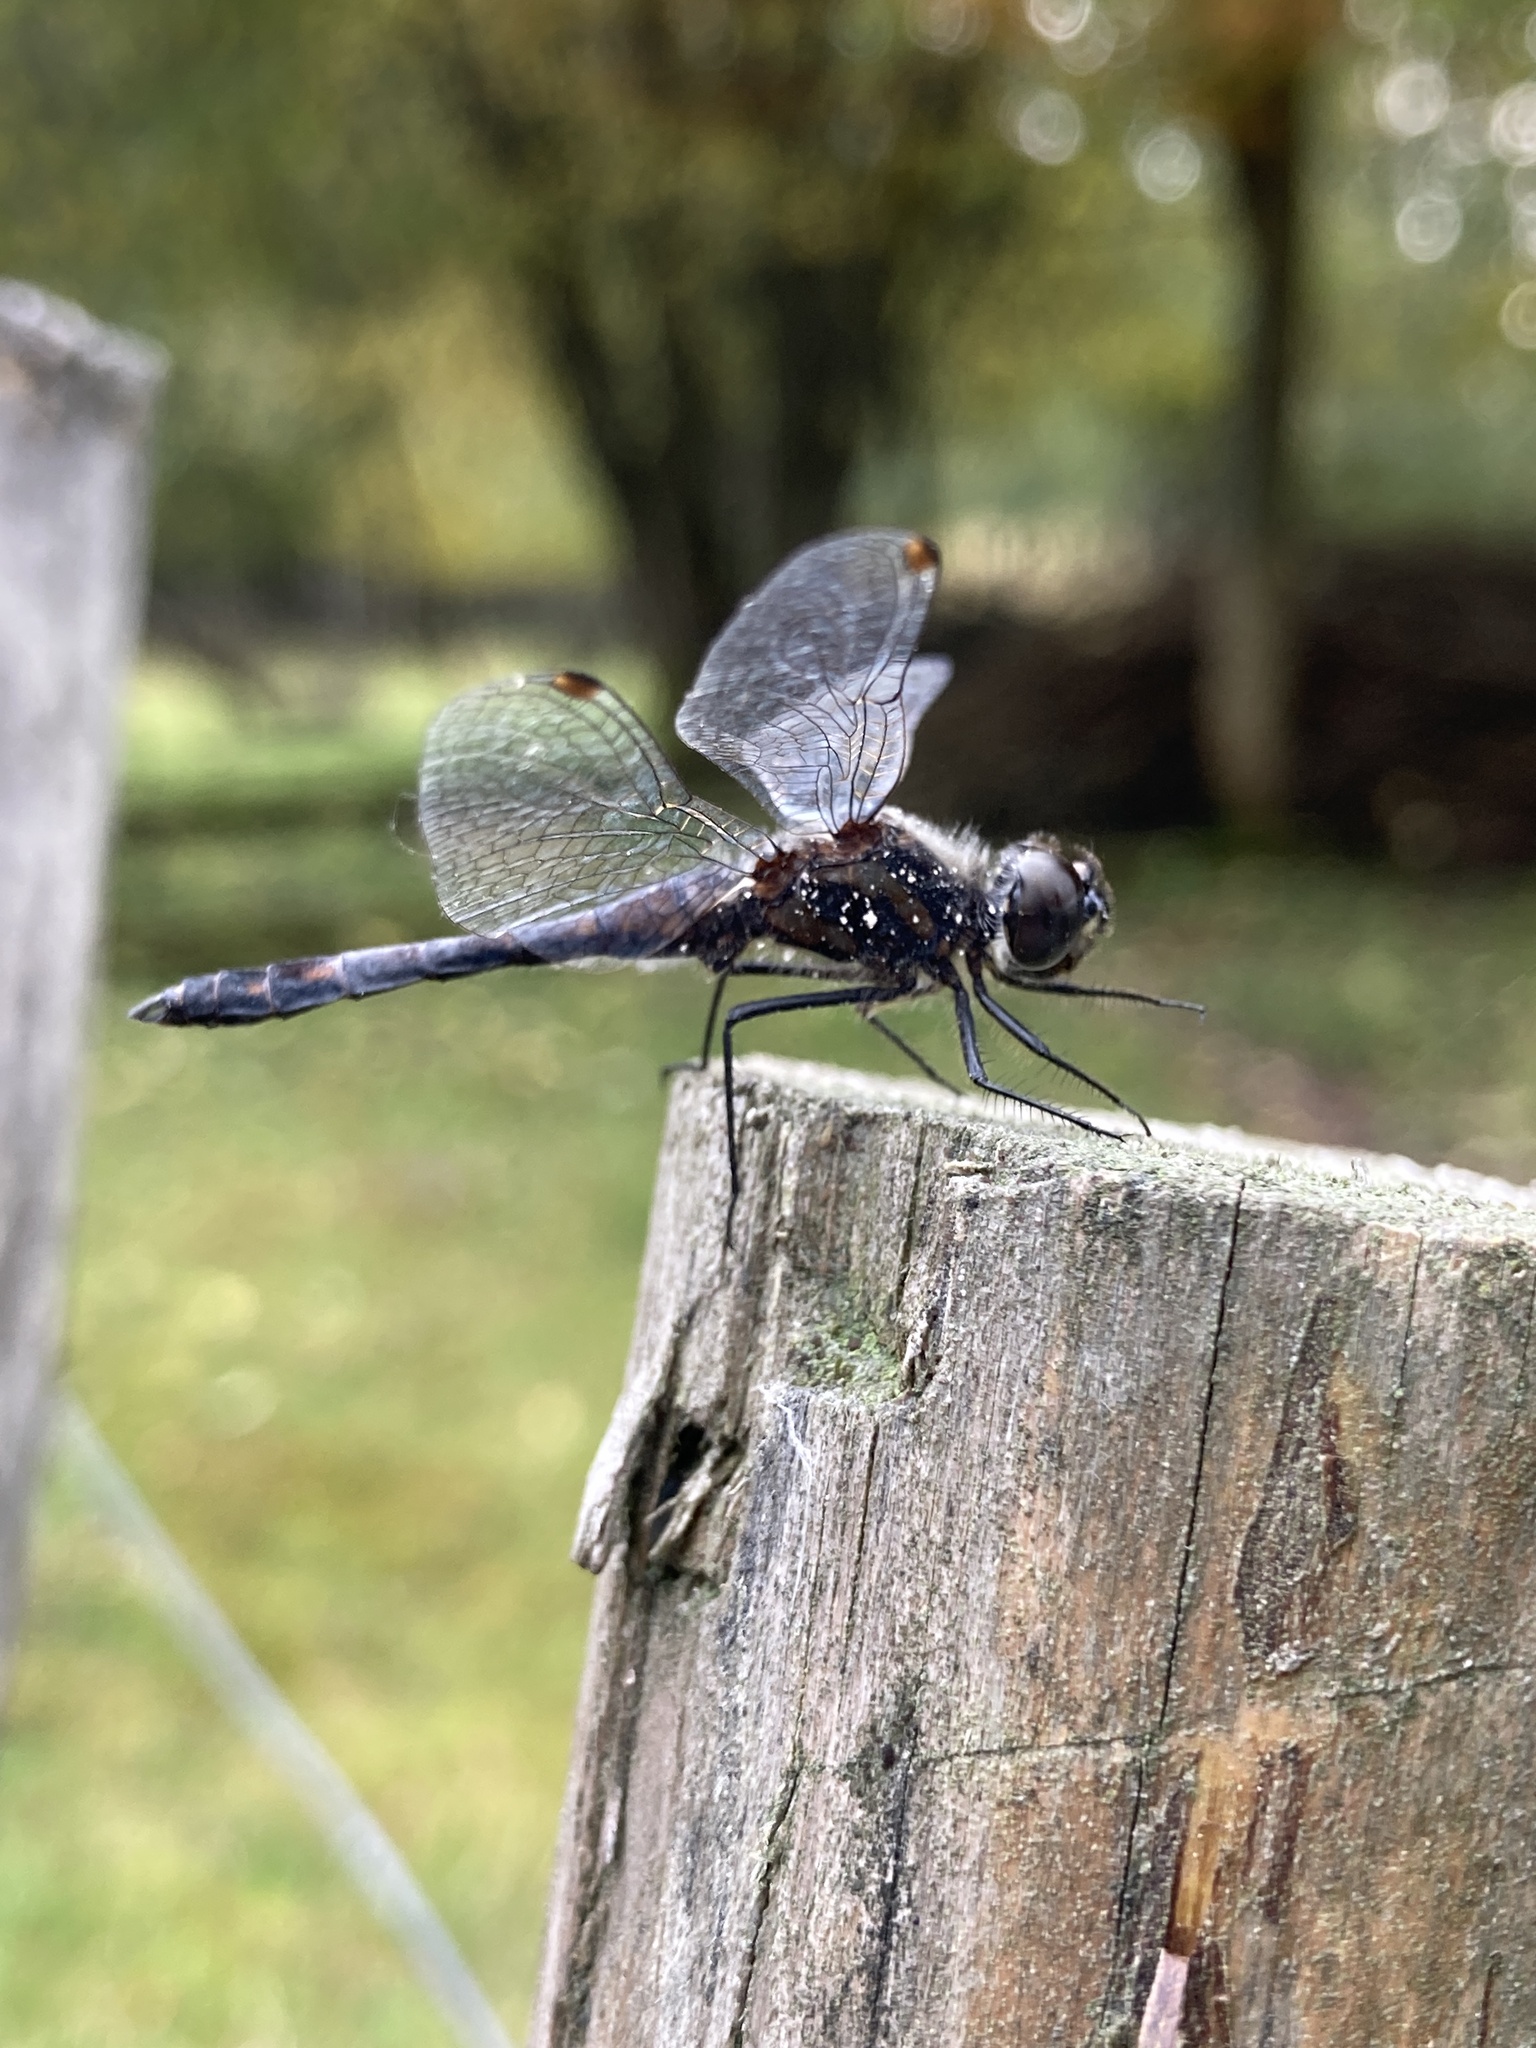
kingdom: Animalia
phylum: Arthropoda
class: Insecta
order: Odonata
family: Libellulidae
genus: Sympetrum
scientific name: Sympetrum danae
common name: Black darter
